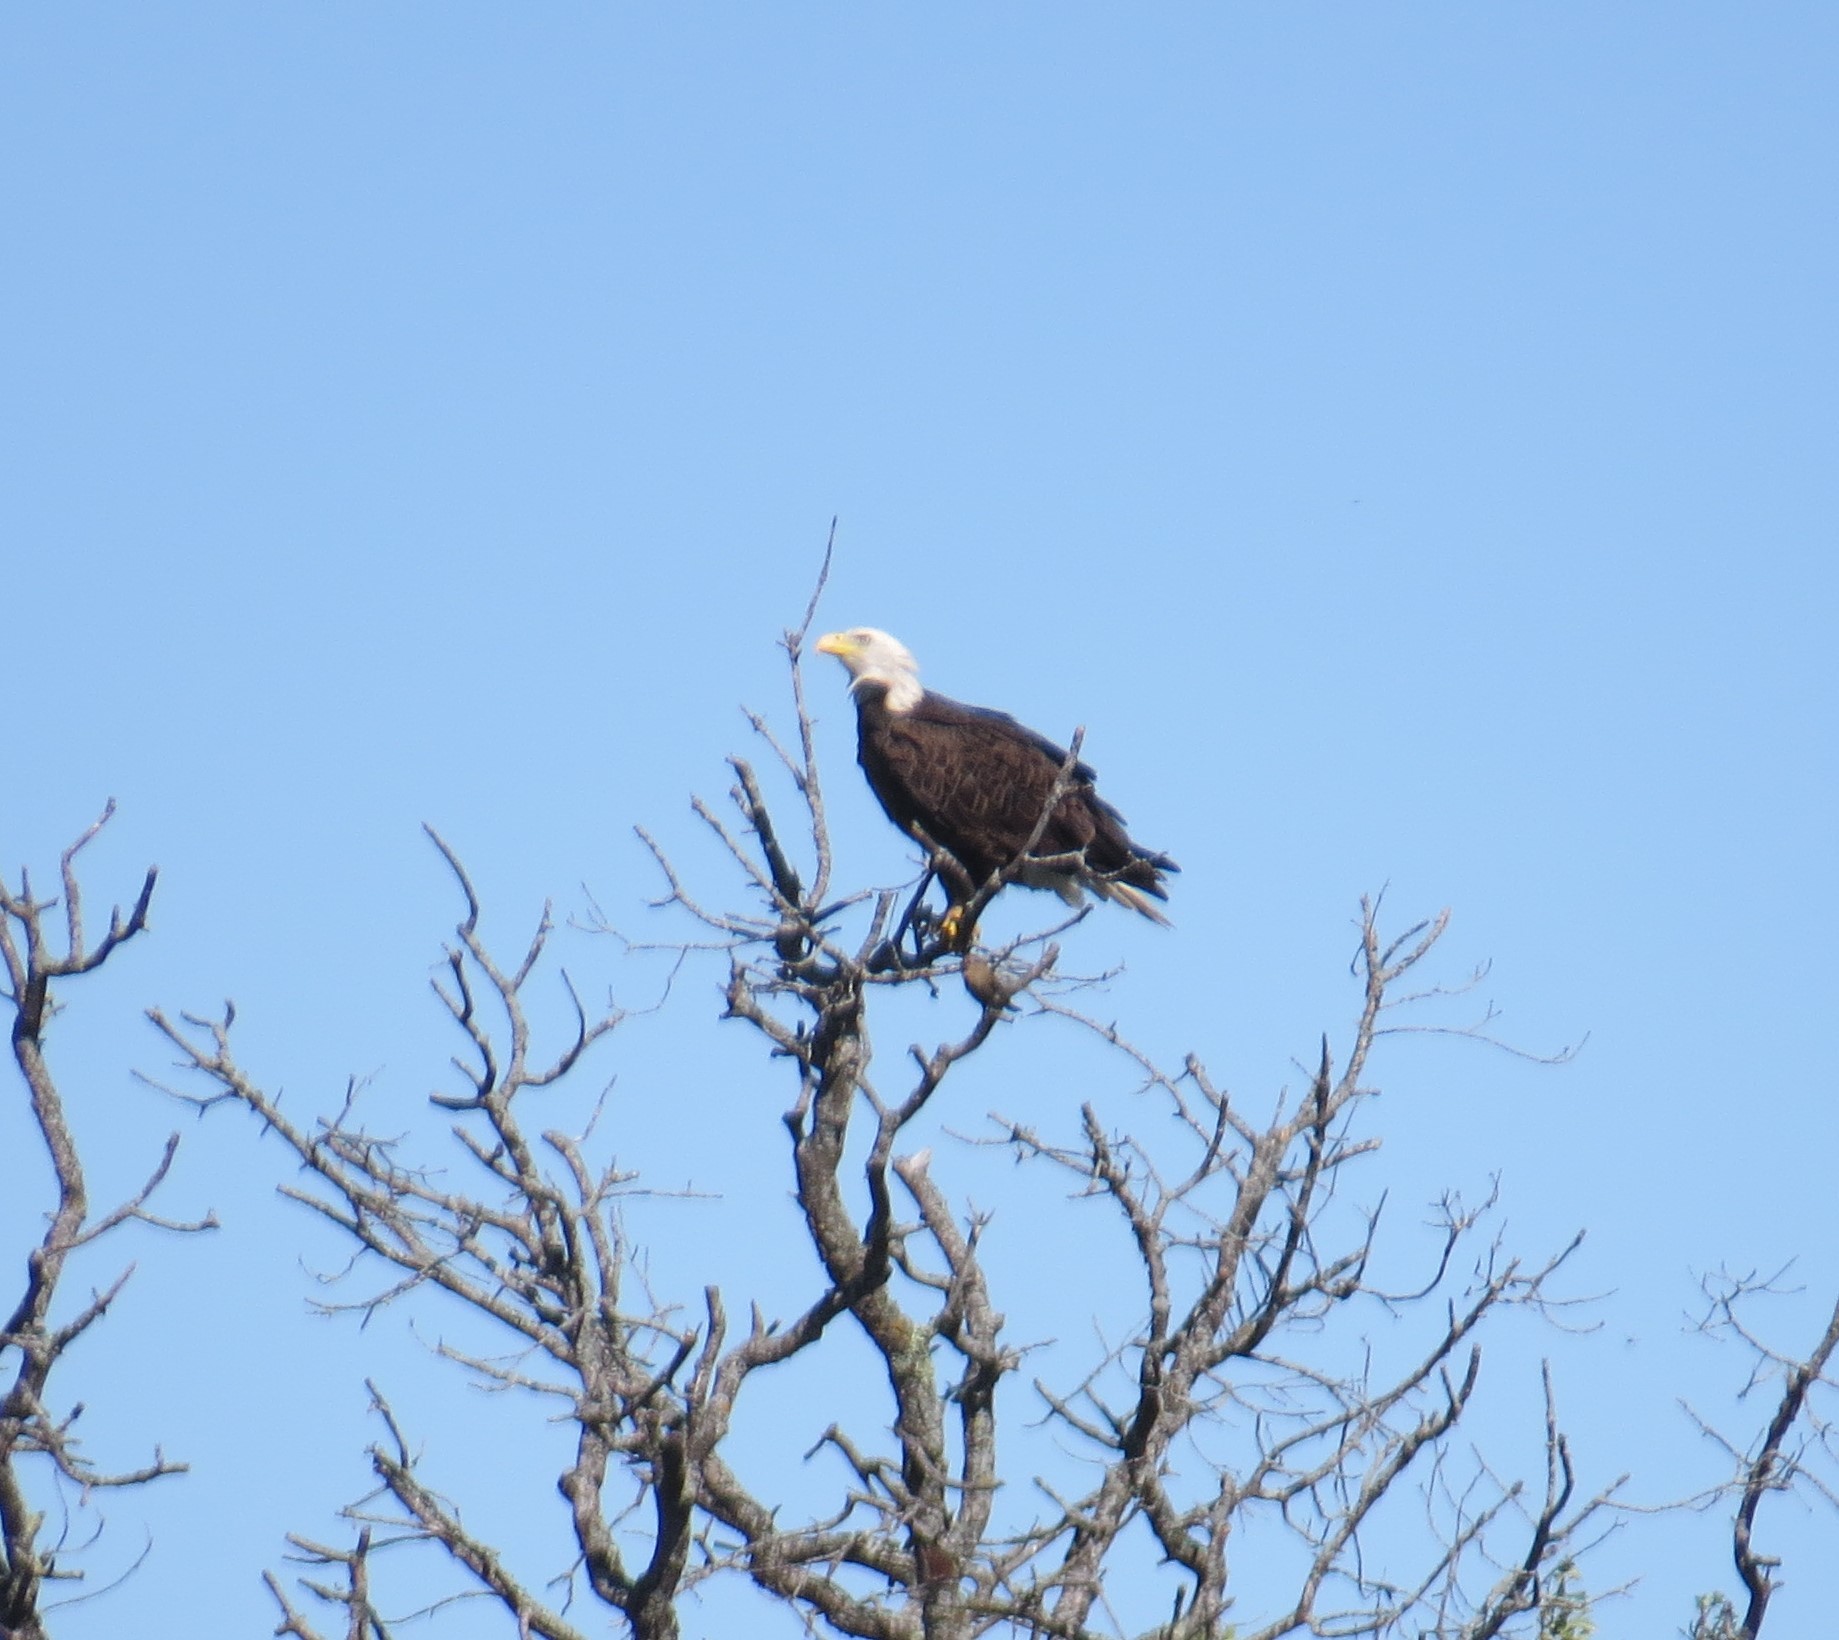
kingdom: Animalia
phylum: Chordata
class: Aves
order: Accipitriformes
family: Accipitridae
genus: Haliaeetus
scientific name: Haliaeetus leucocephalus
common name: Bald eagle
